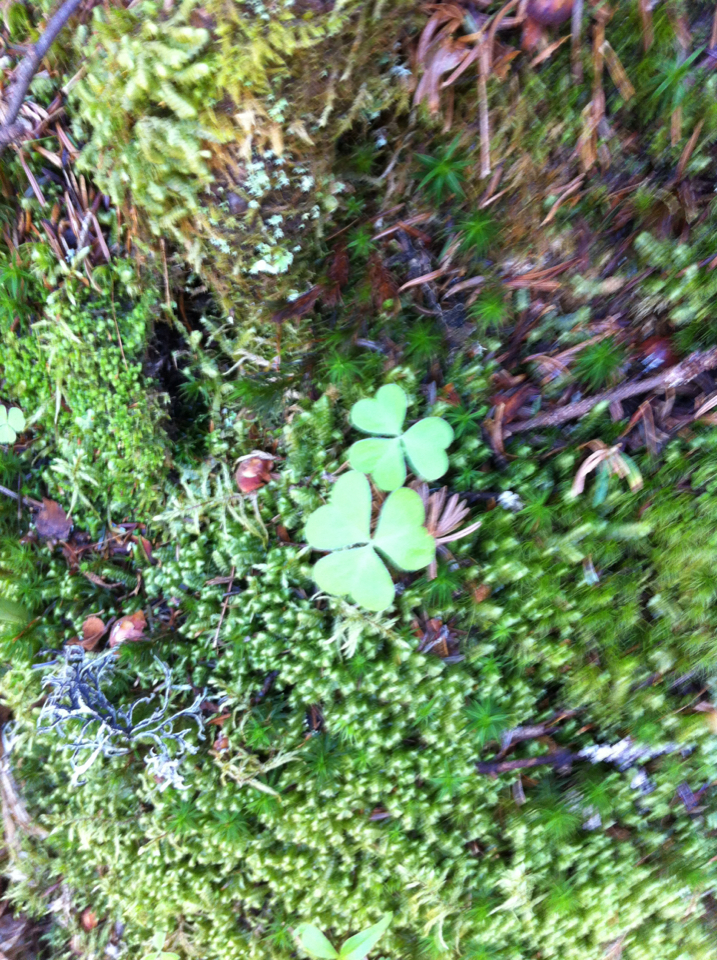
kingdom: Plantae
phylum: Tracheophyta
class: Magnoliopsida
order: Oxalidales
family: Oxalidaceae
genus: Oxalis
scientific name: Oxalis montana
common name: American wood-sorrel
